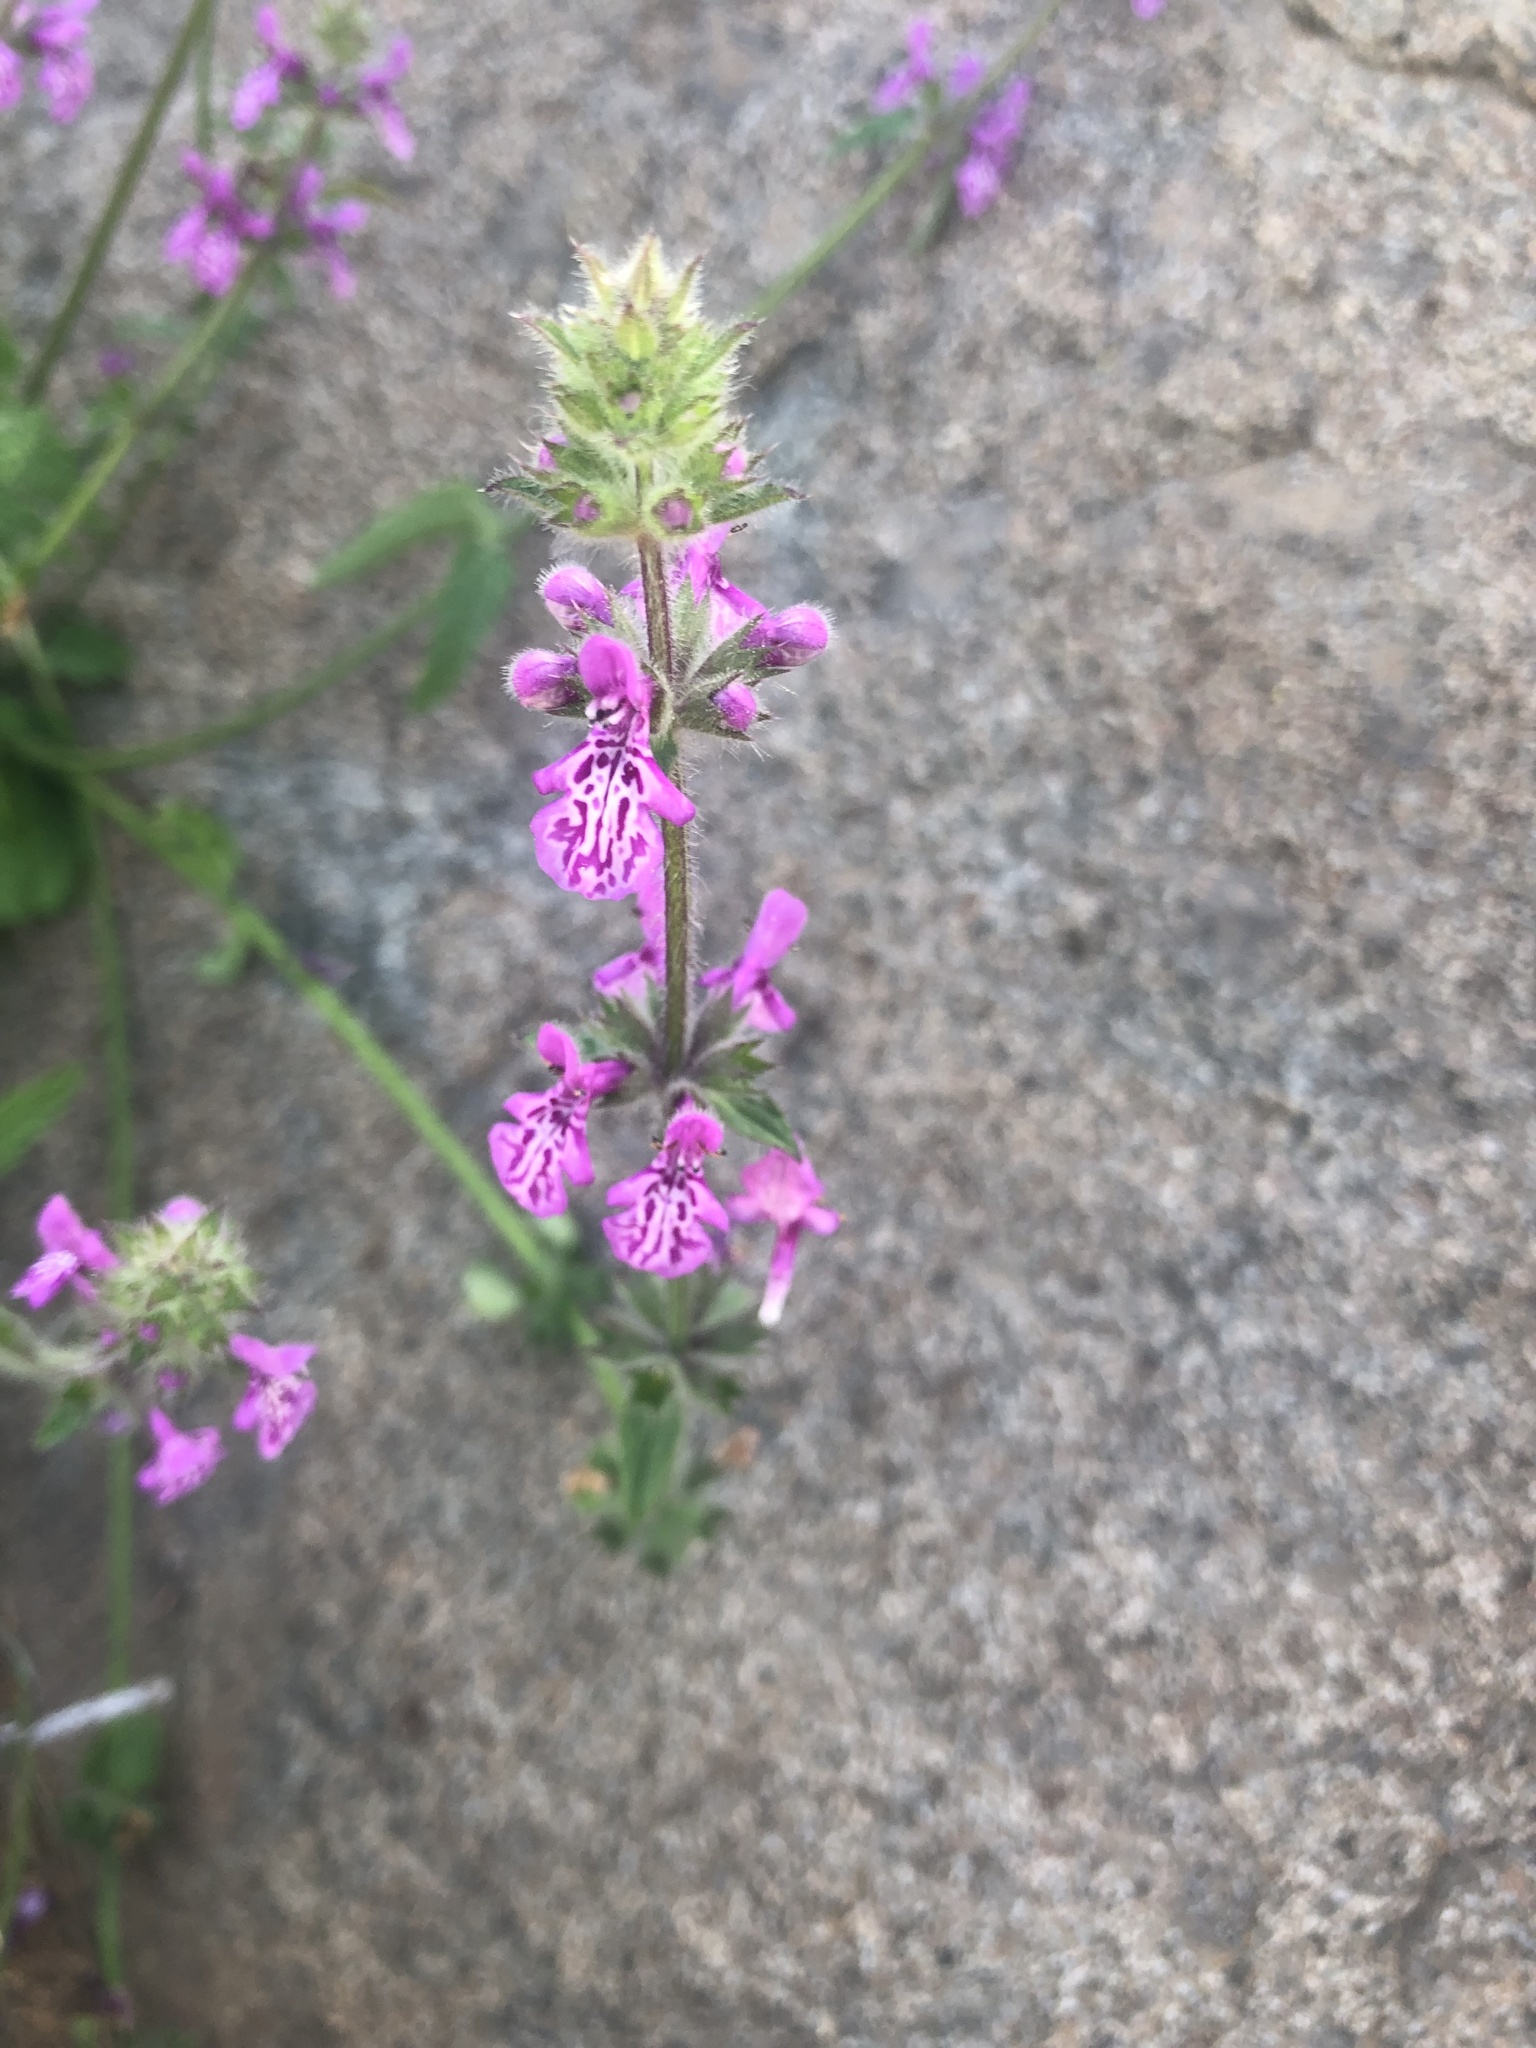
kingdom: Plantae
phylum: Tracheophyta
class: Magnoliopsida
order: Lamiales
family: Lamiaceae
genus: Stachys
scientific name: Stachys grandidentata
